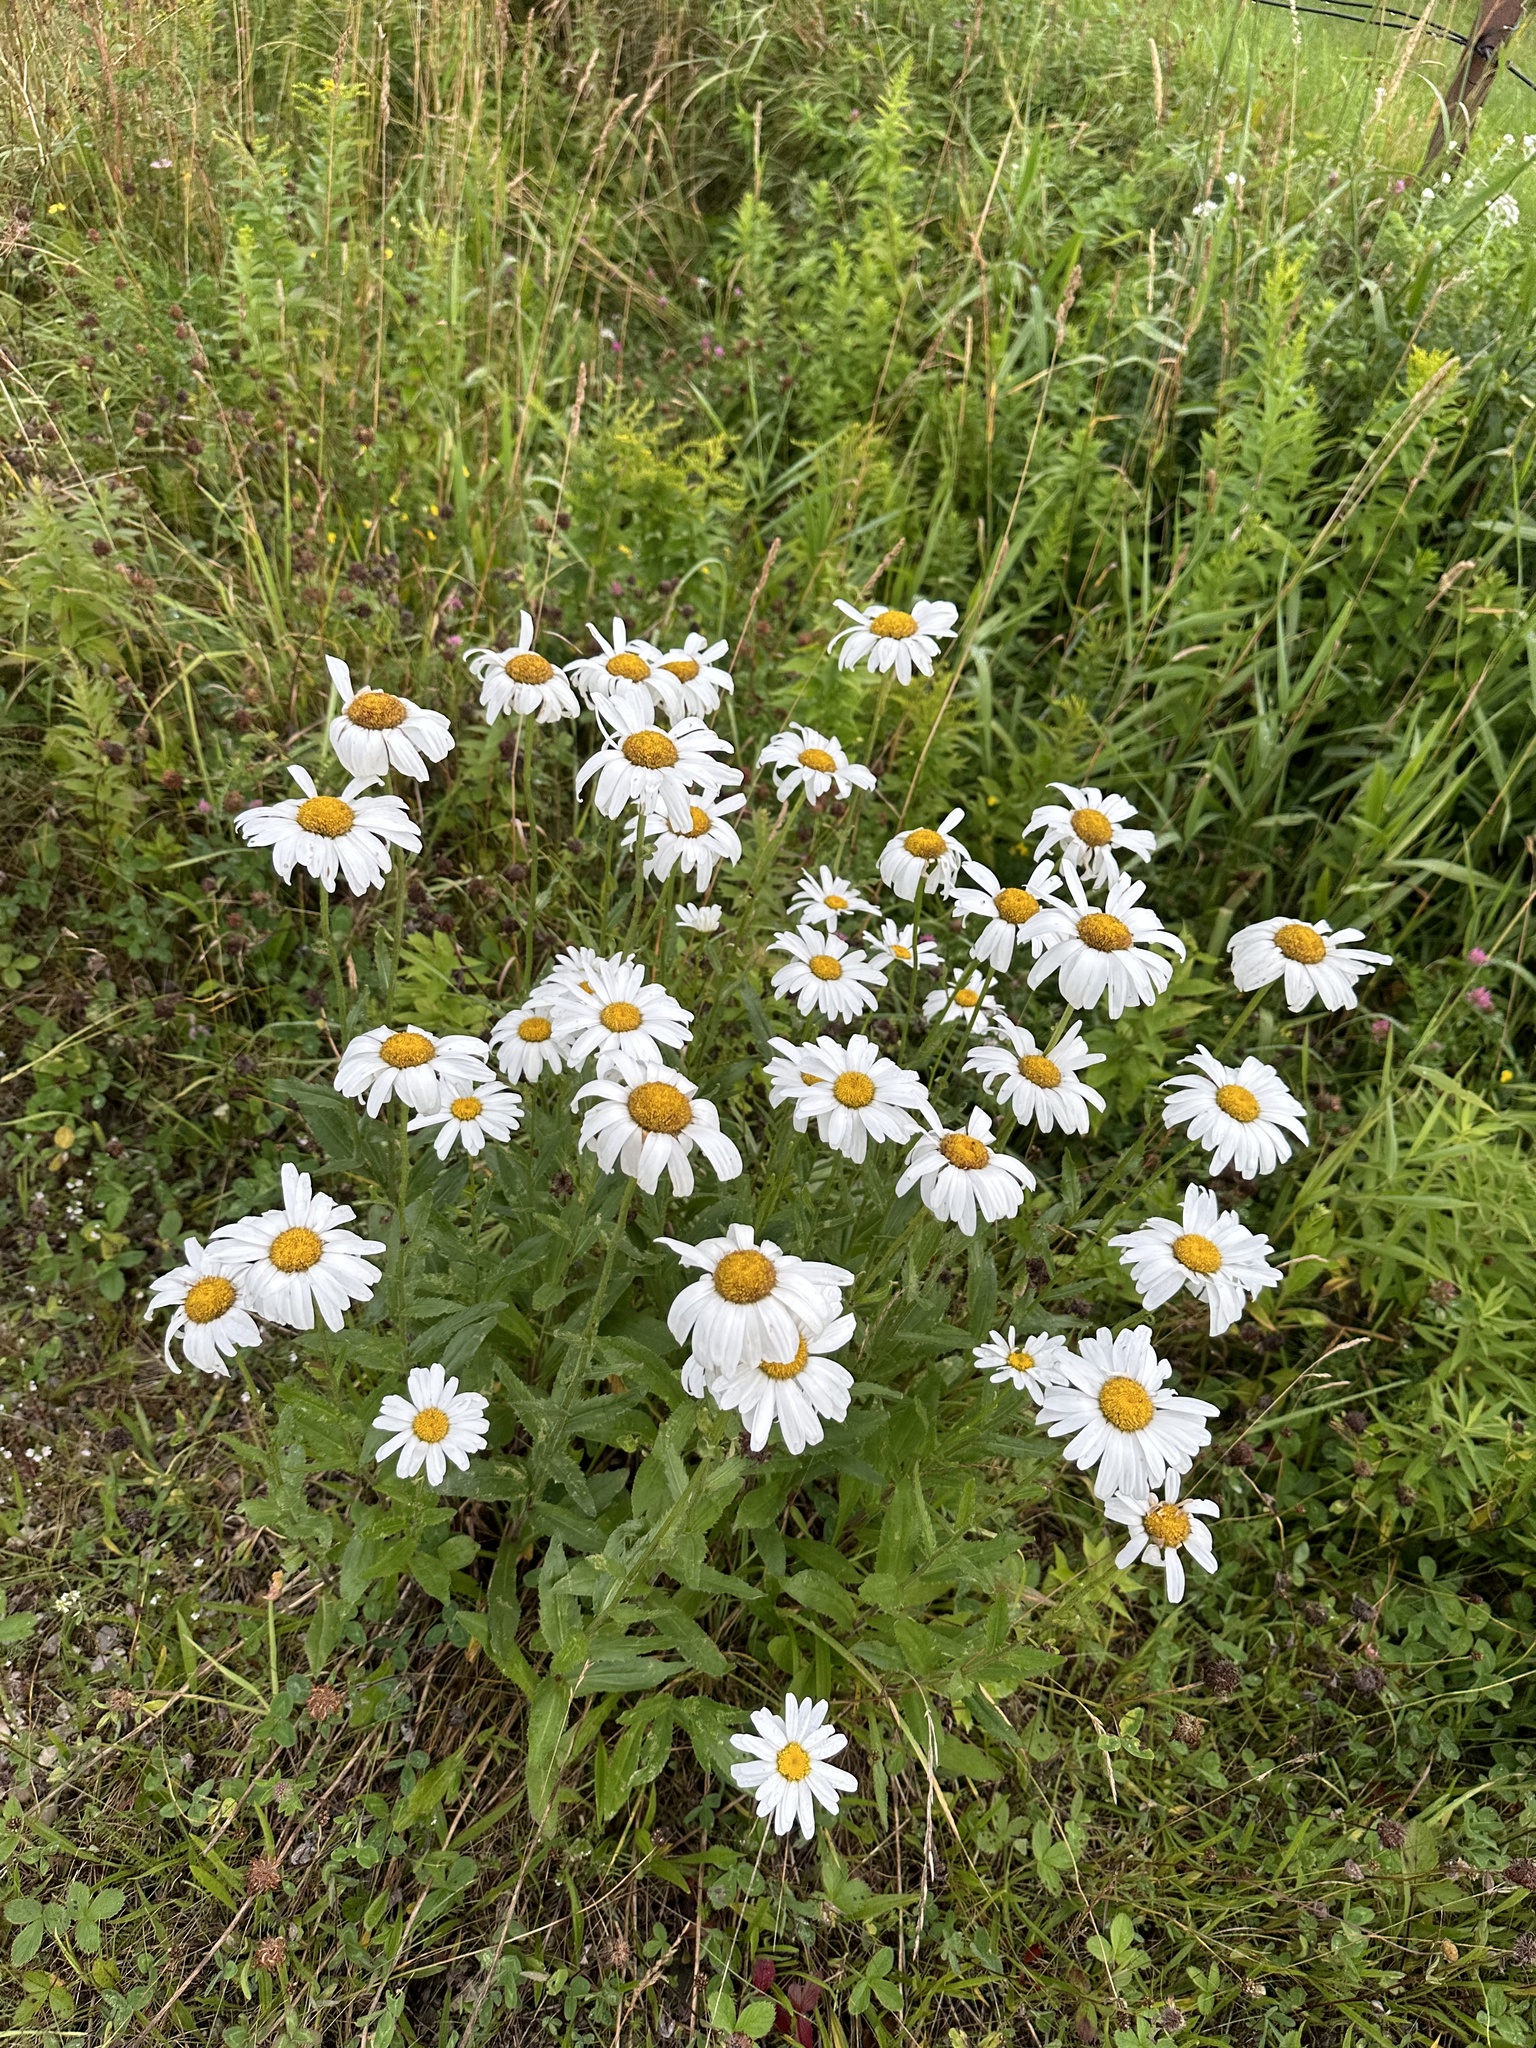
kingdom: Plantae
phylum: Tracheophyta
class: Magnoliopsida
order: Asterales
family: Asteraceae
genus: Leucanthemum
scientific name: Leucanthemum vulgare
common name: Oxeye daisy
